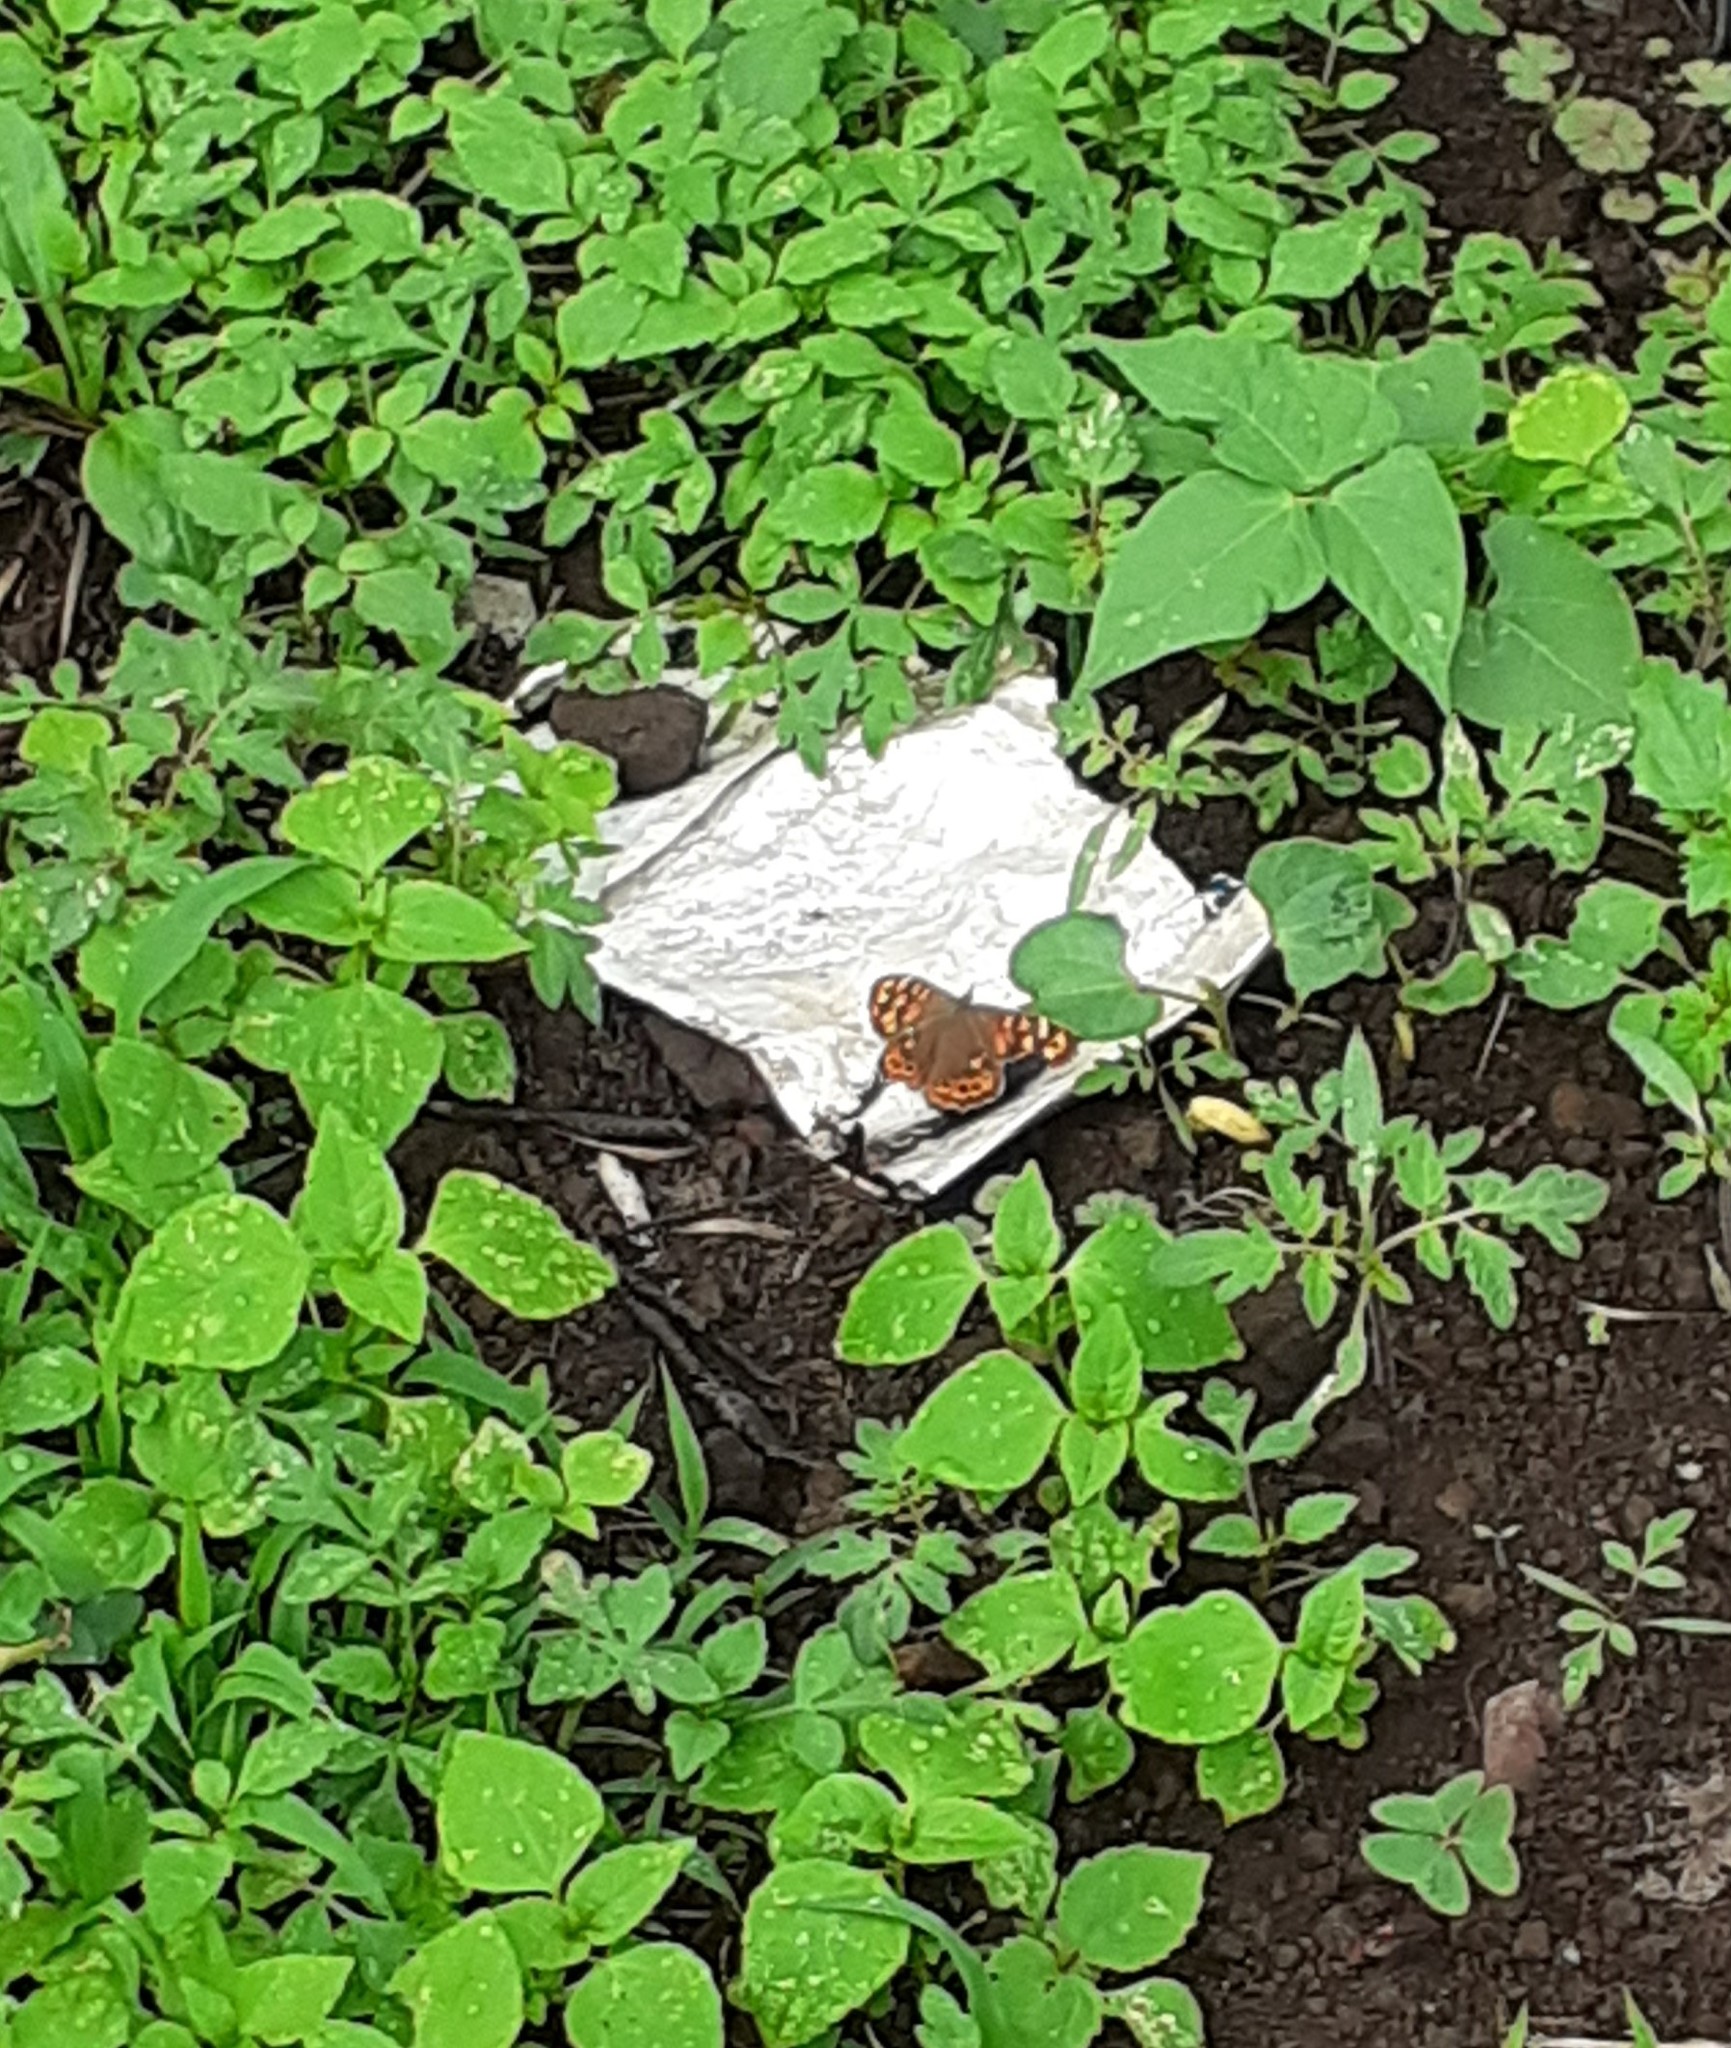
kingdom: Animalia
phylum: Arthropoda
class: Insecta
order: Lepidoptera
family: Nymphalidae
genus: Pararge
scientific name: Pararge aegeria
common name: Speckled wood
